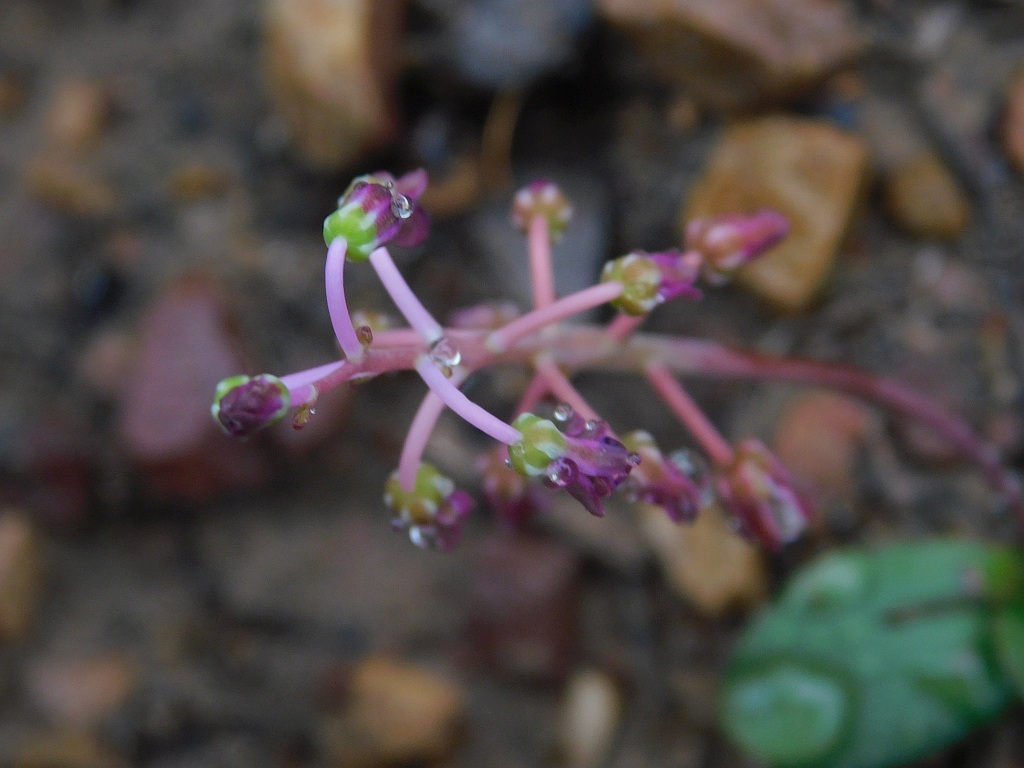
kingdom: Plantae
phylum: Tracheophyta
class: Liliopsida
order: Asparagales
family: Asparagaceae
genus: Ledebouria
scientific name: Ledebouria ovalifolia
